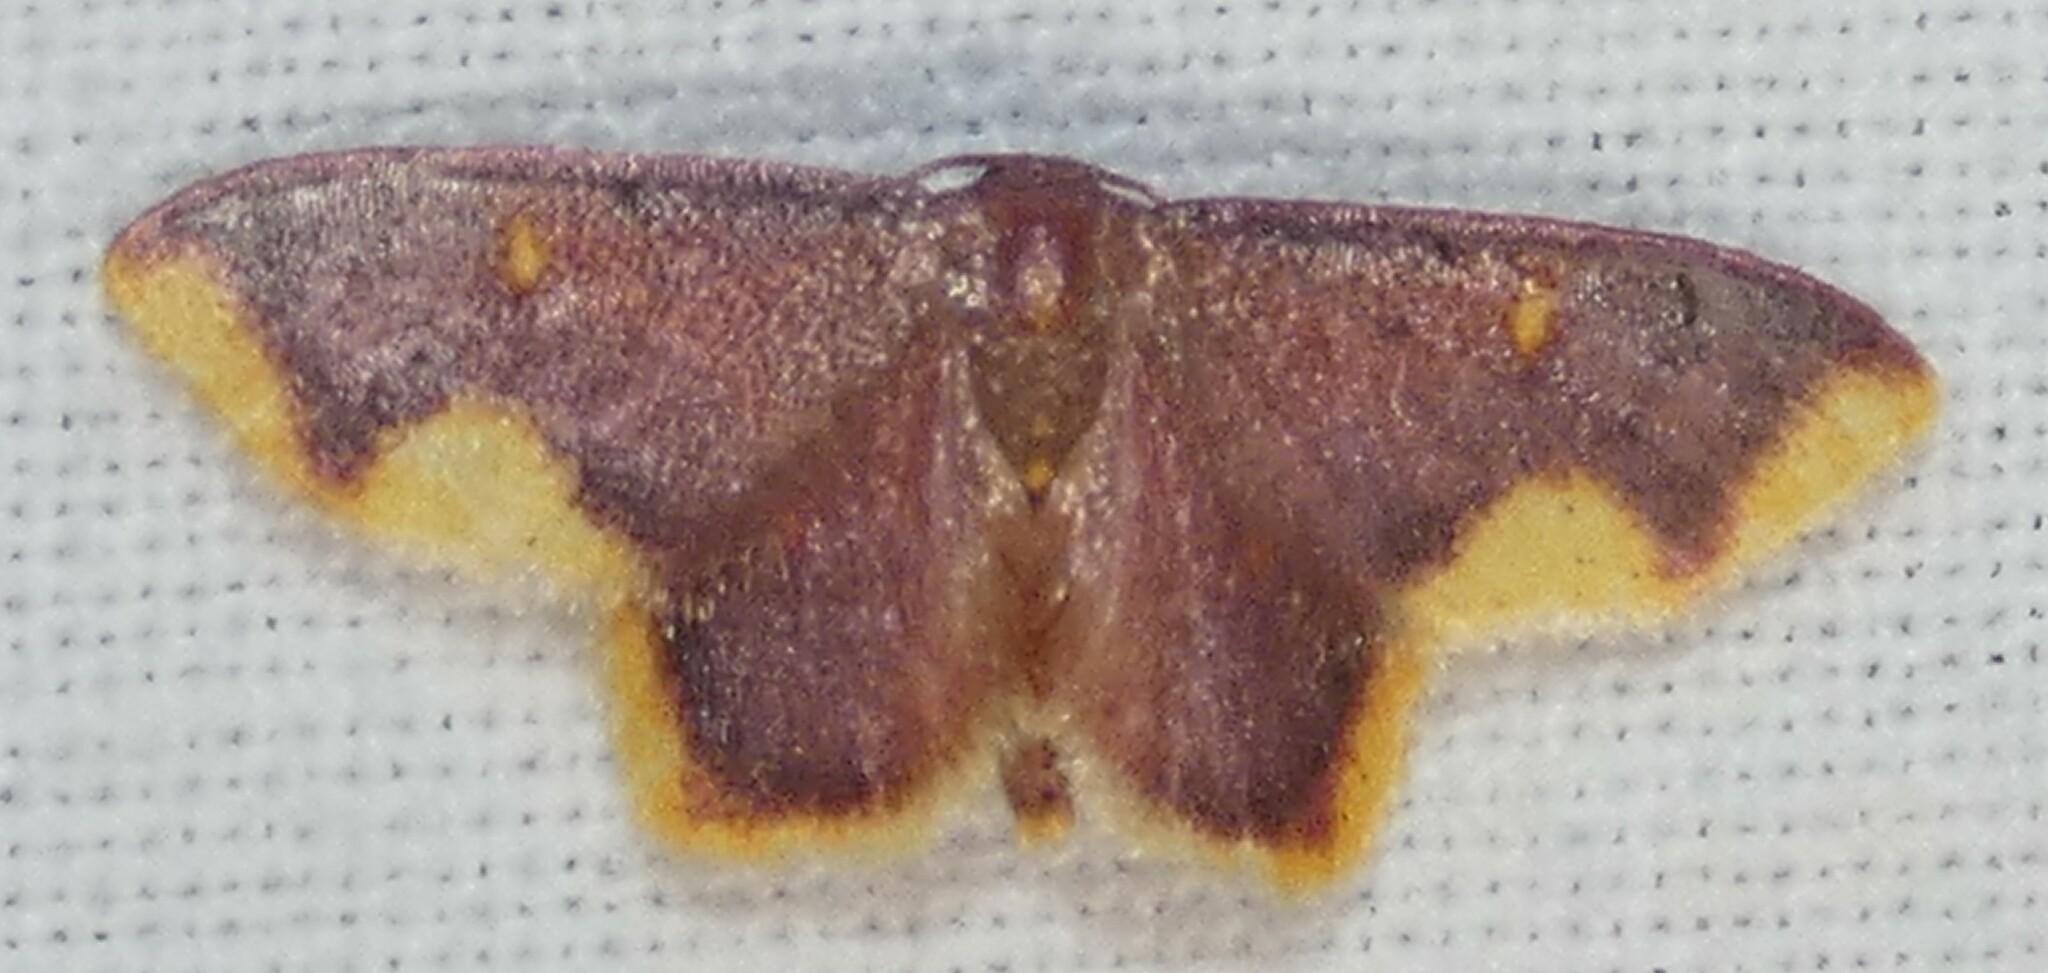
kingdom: Animalia
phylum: Arthropoda
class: Insecta
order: Lepidoptera
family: Geometridae
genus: Lophosis
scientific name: Lophosis labeculata
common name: Stained lophosis moth
